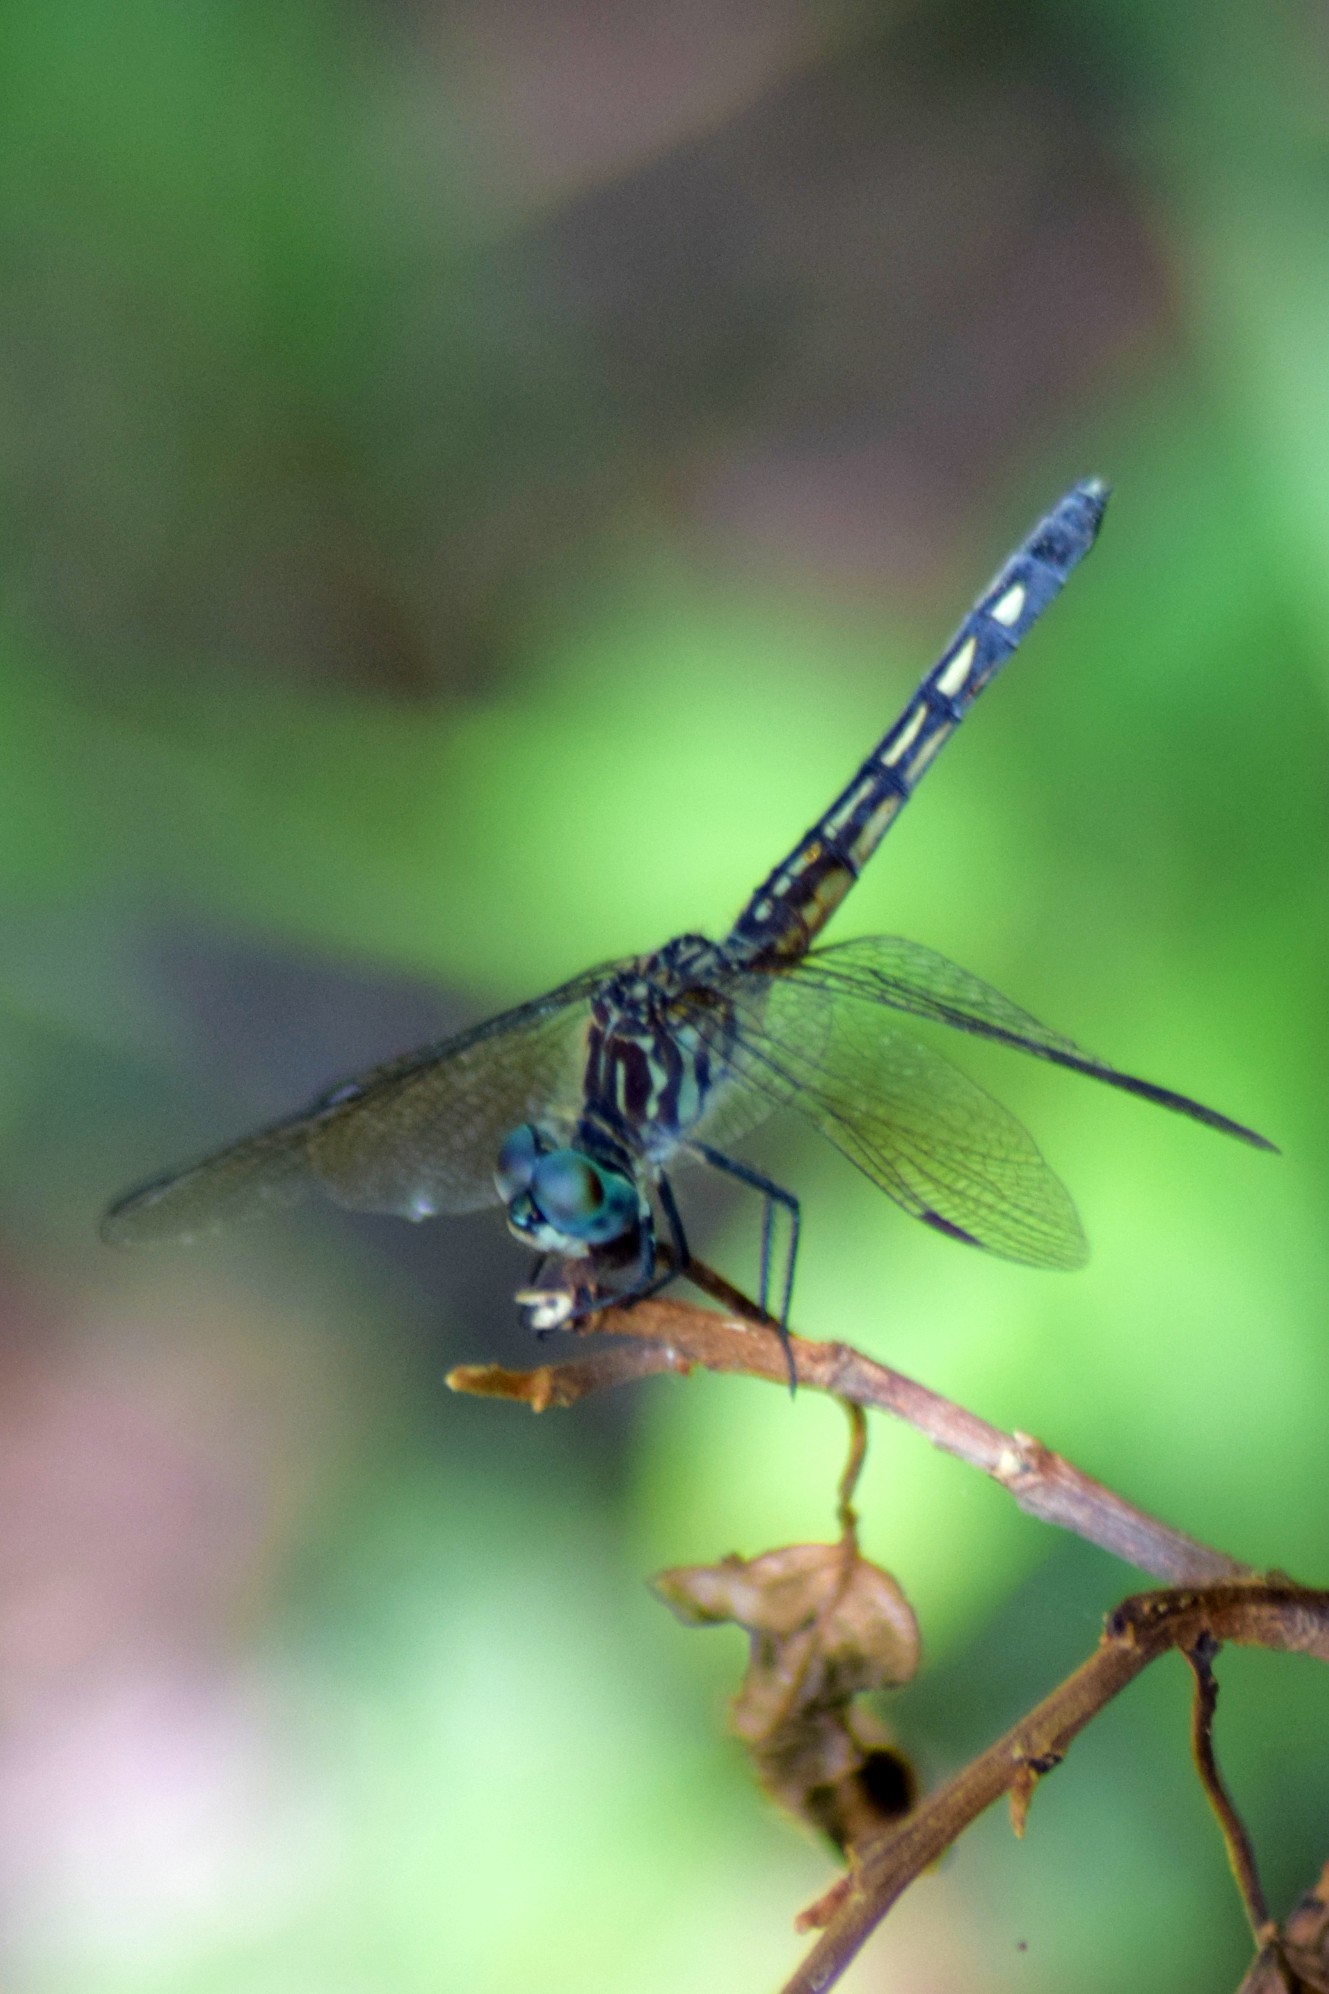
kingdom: Animalia
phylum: Arthropoda
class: Insecta
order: Odonata
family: Libellulidae
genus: Pachydiplax
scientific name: Pachydiplax longipennis
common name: Blue dasher
